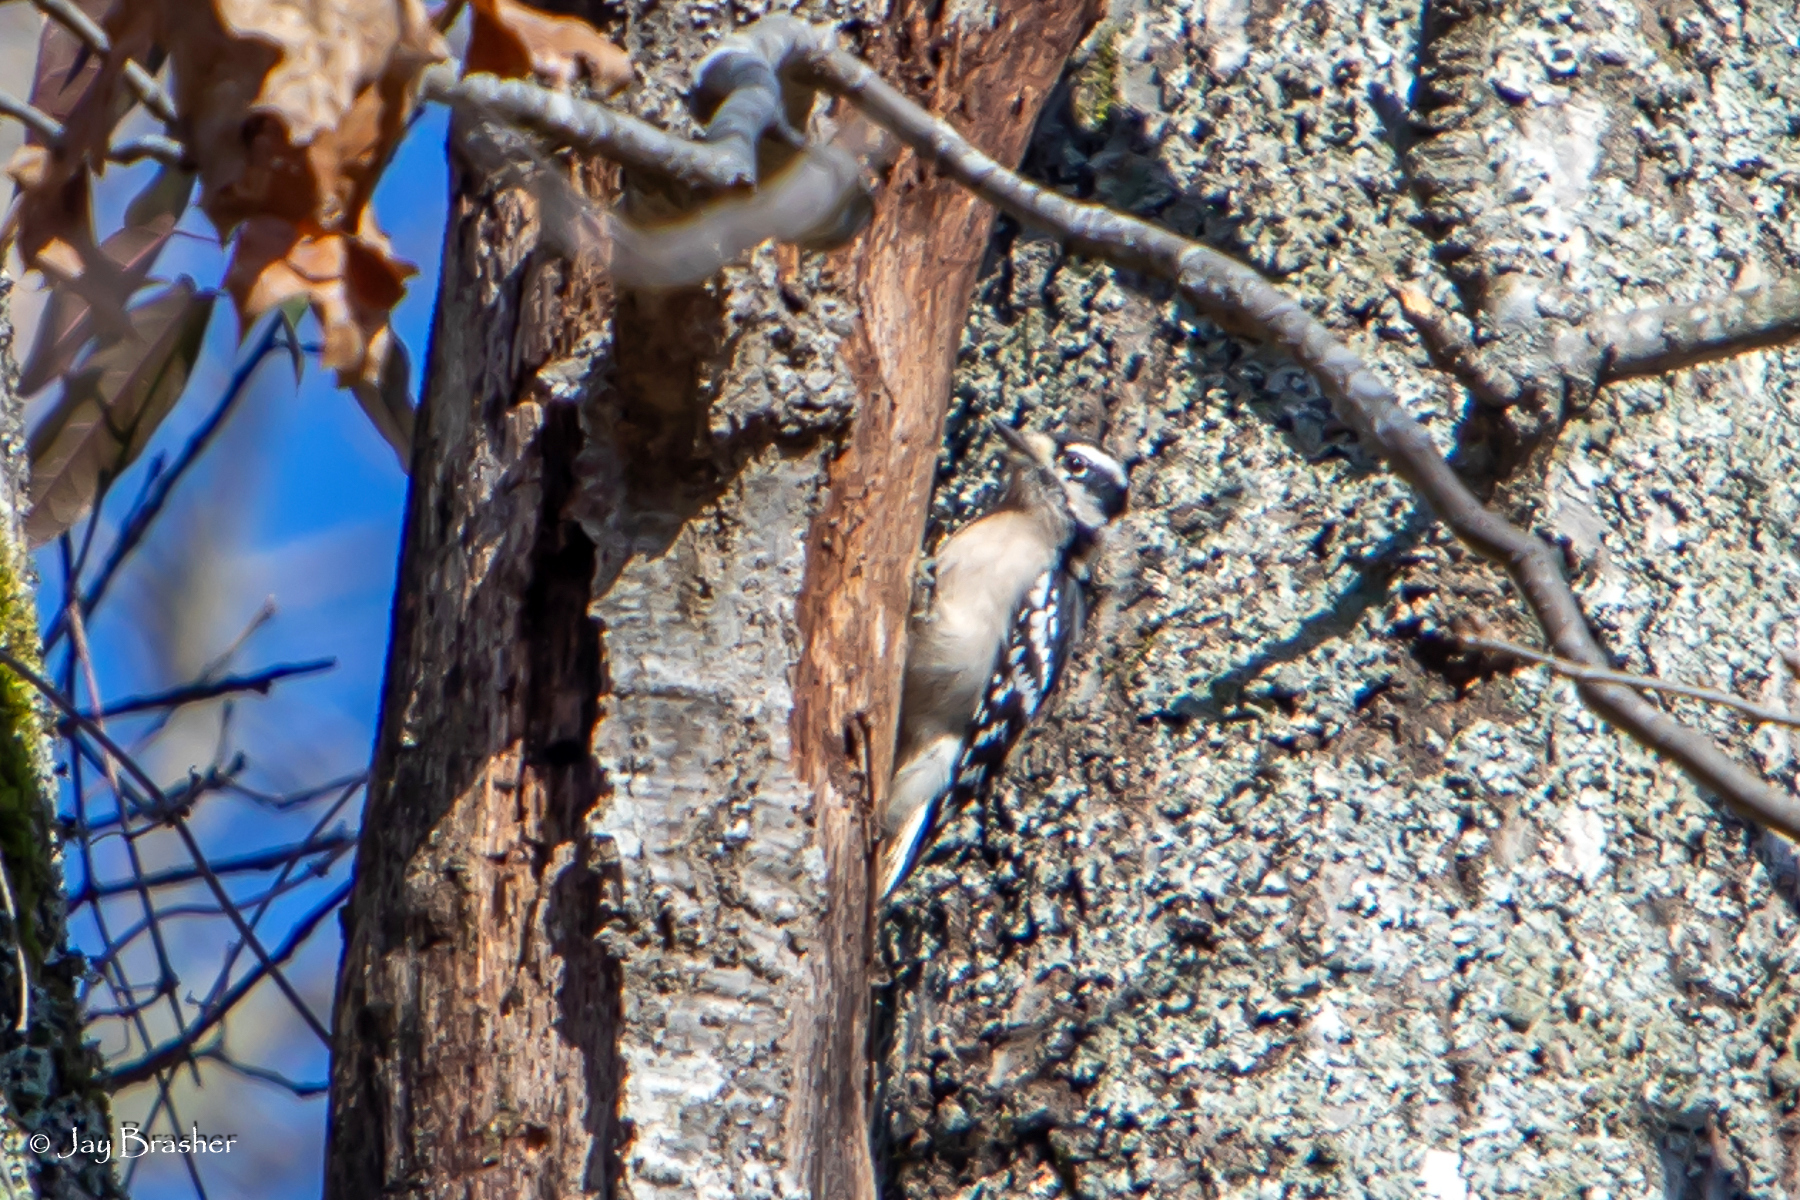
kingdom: Animalia
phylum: Chordata
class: Aves
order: Piciformes
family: Picidae
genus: Dryobates
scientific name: Dryobates pubescens
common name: Downy woodpecker
